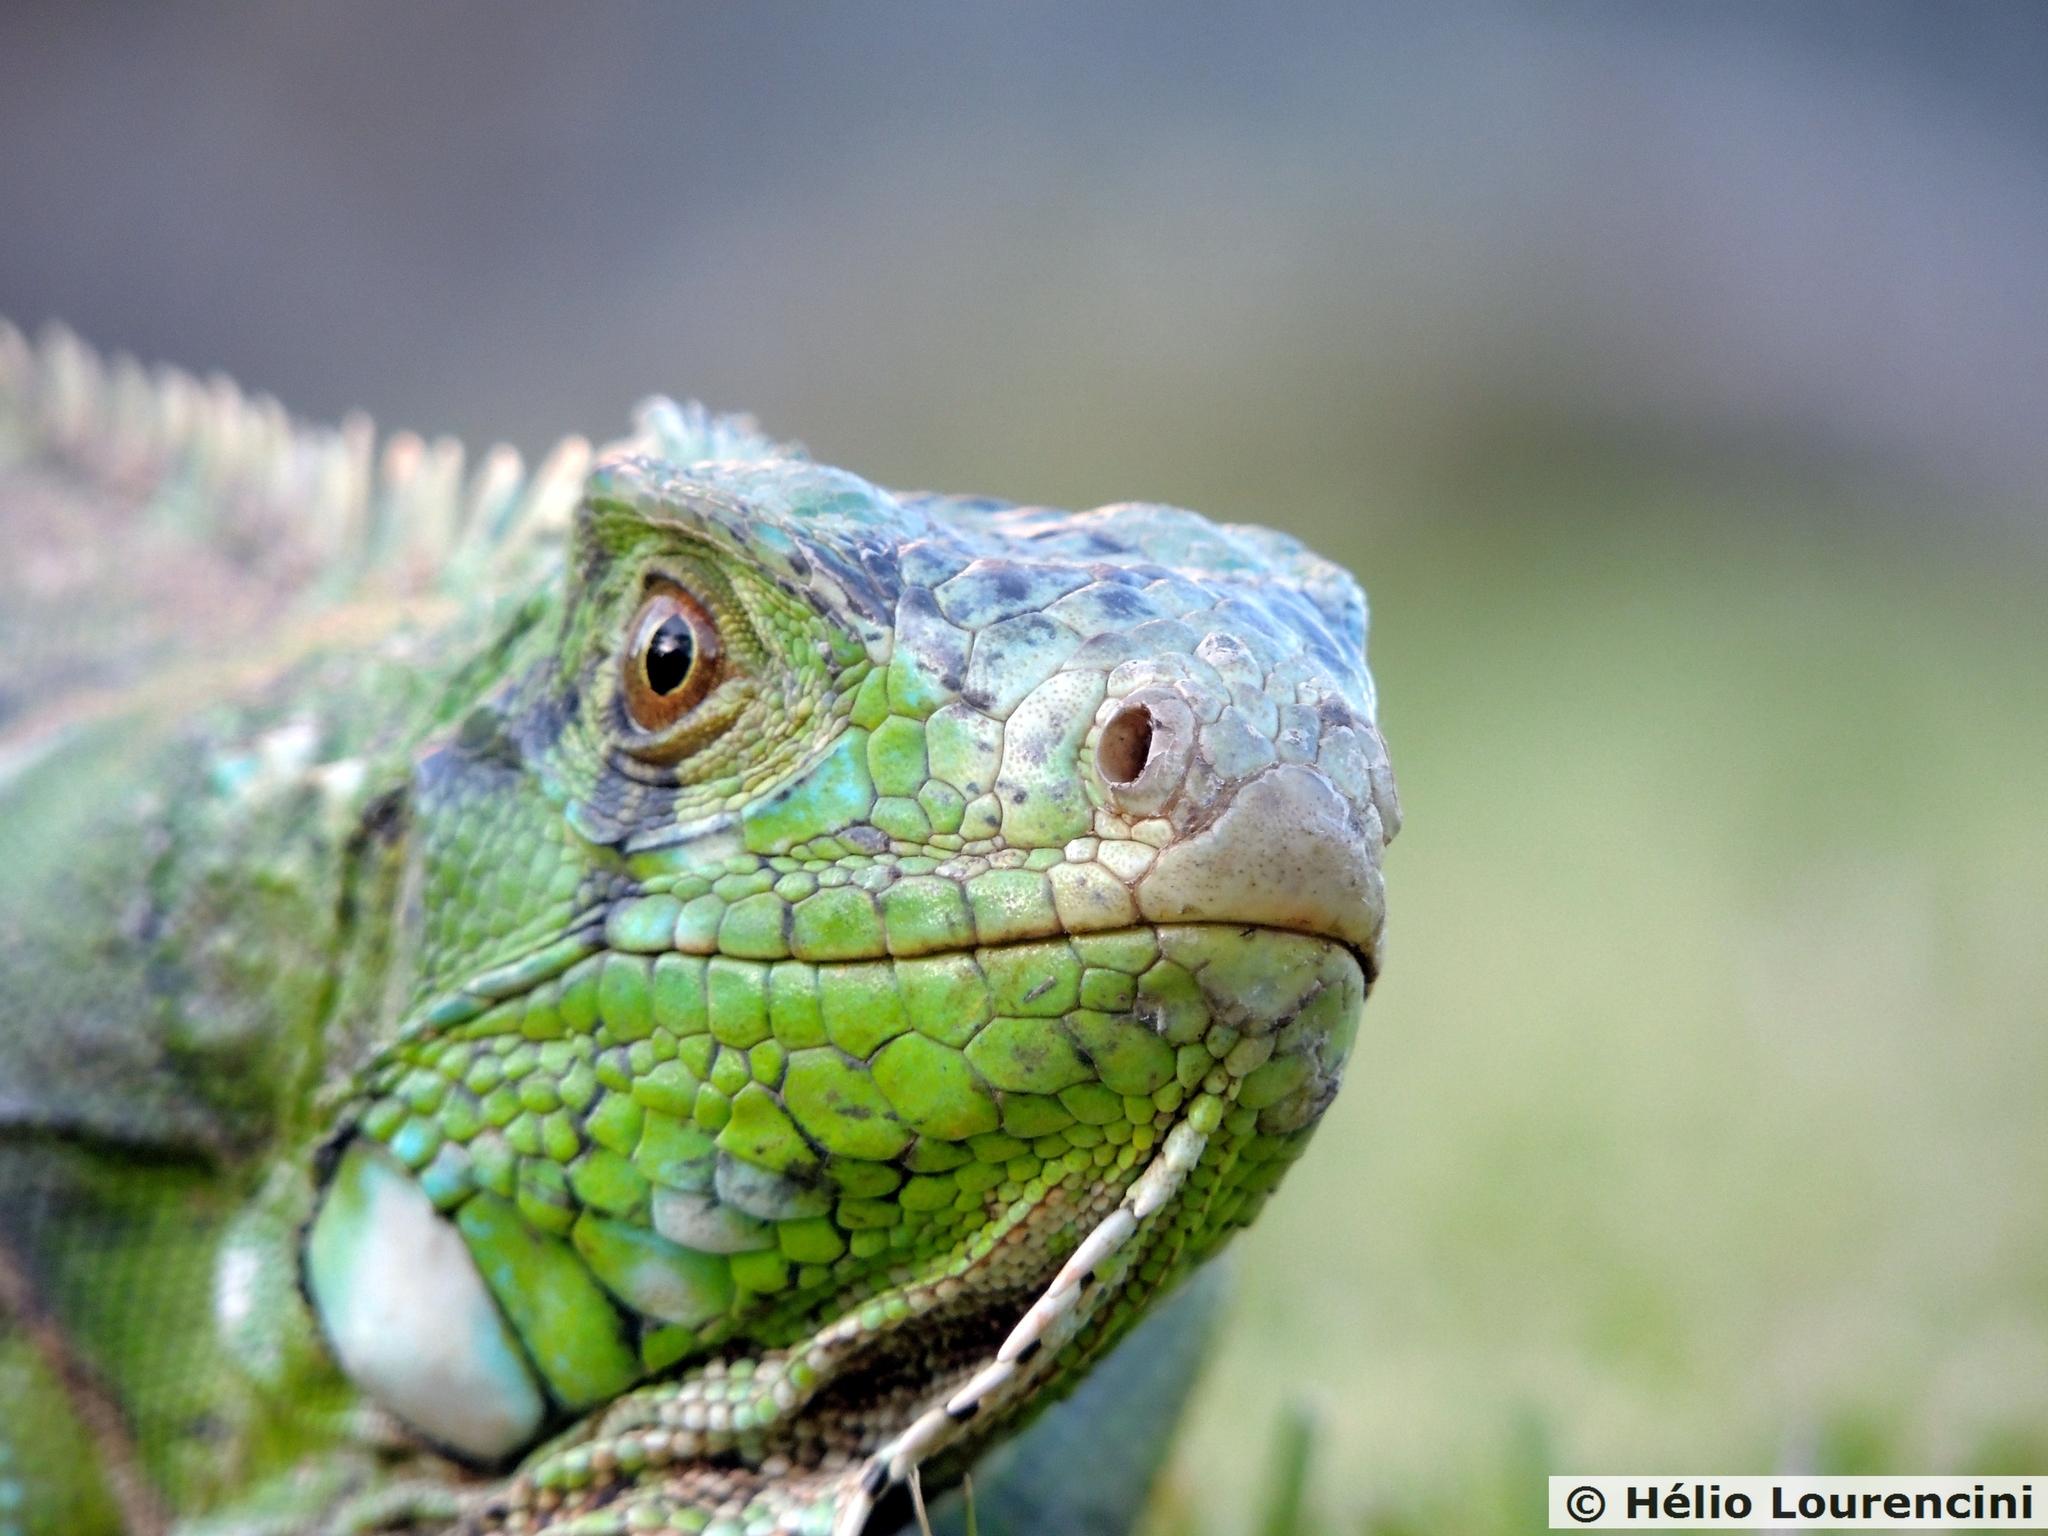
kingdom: Animalia
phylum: Chordata
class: Squamata
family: Iguanidae
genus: Iguana
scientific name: Iguana iguana
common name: Green iguana
